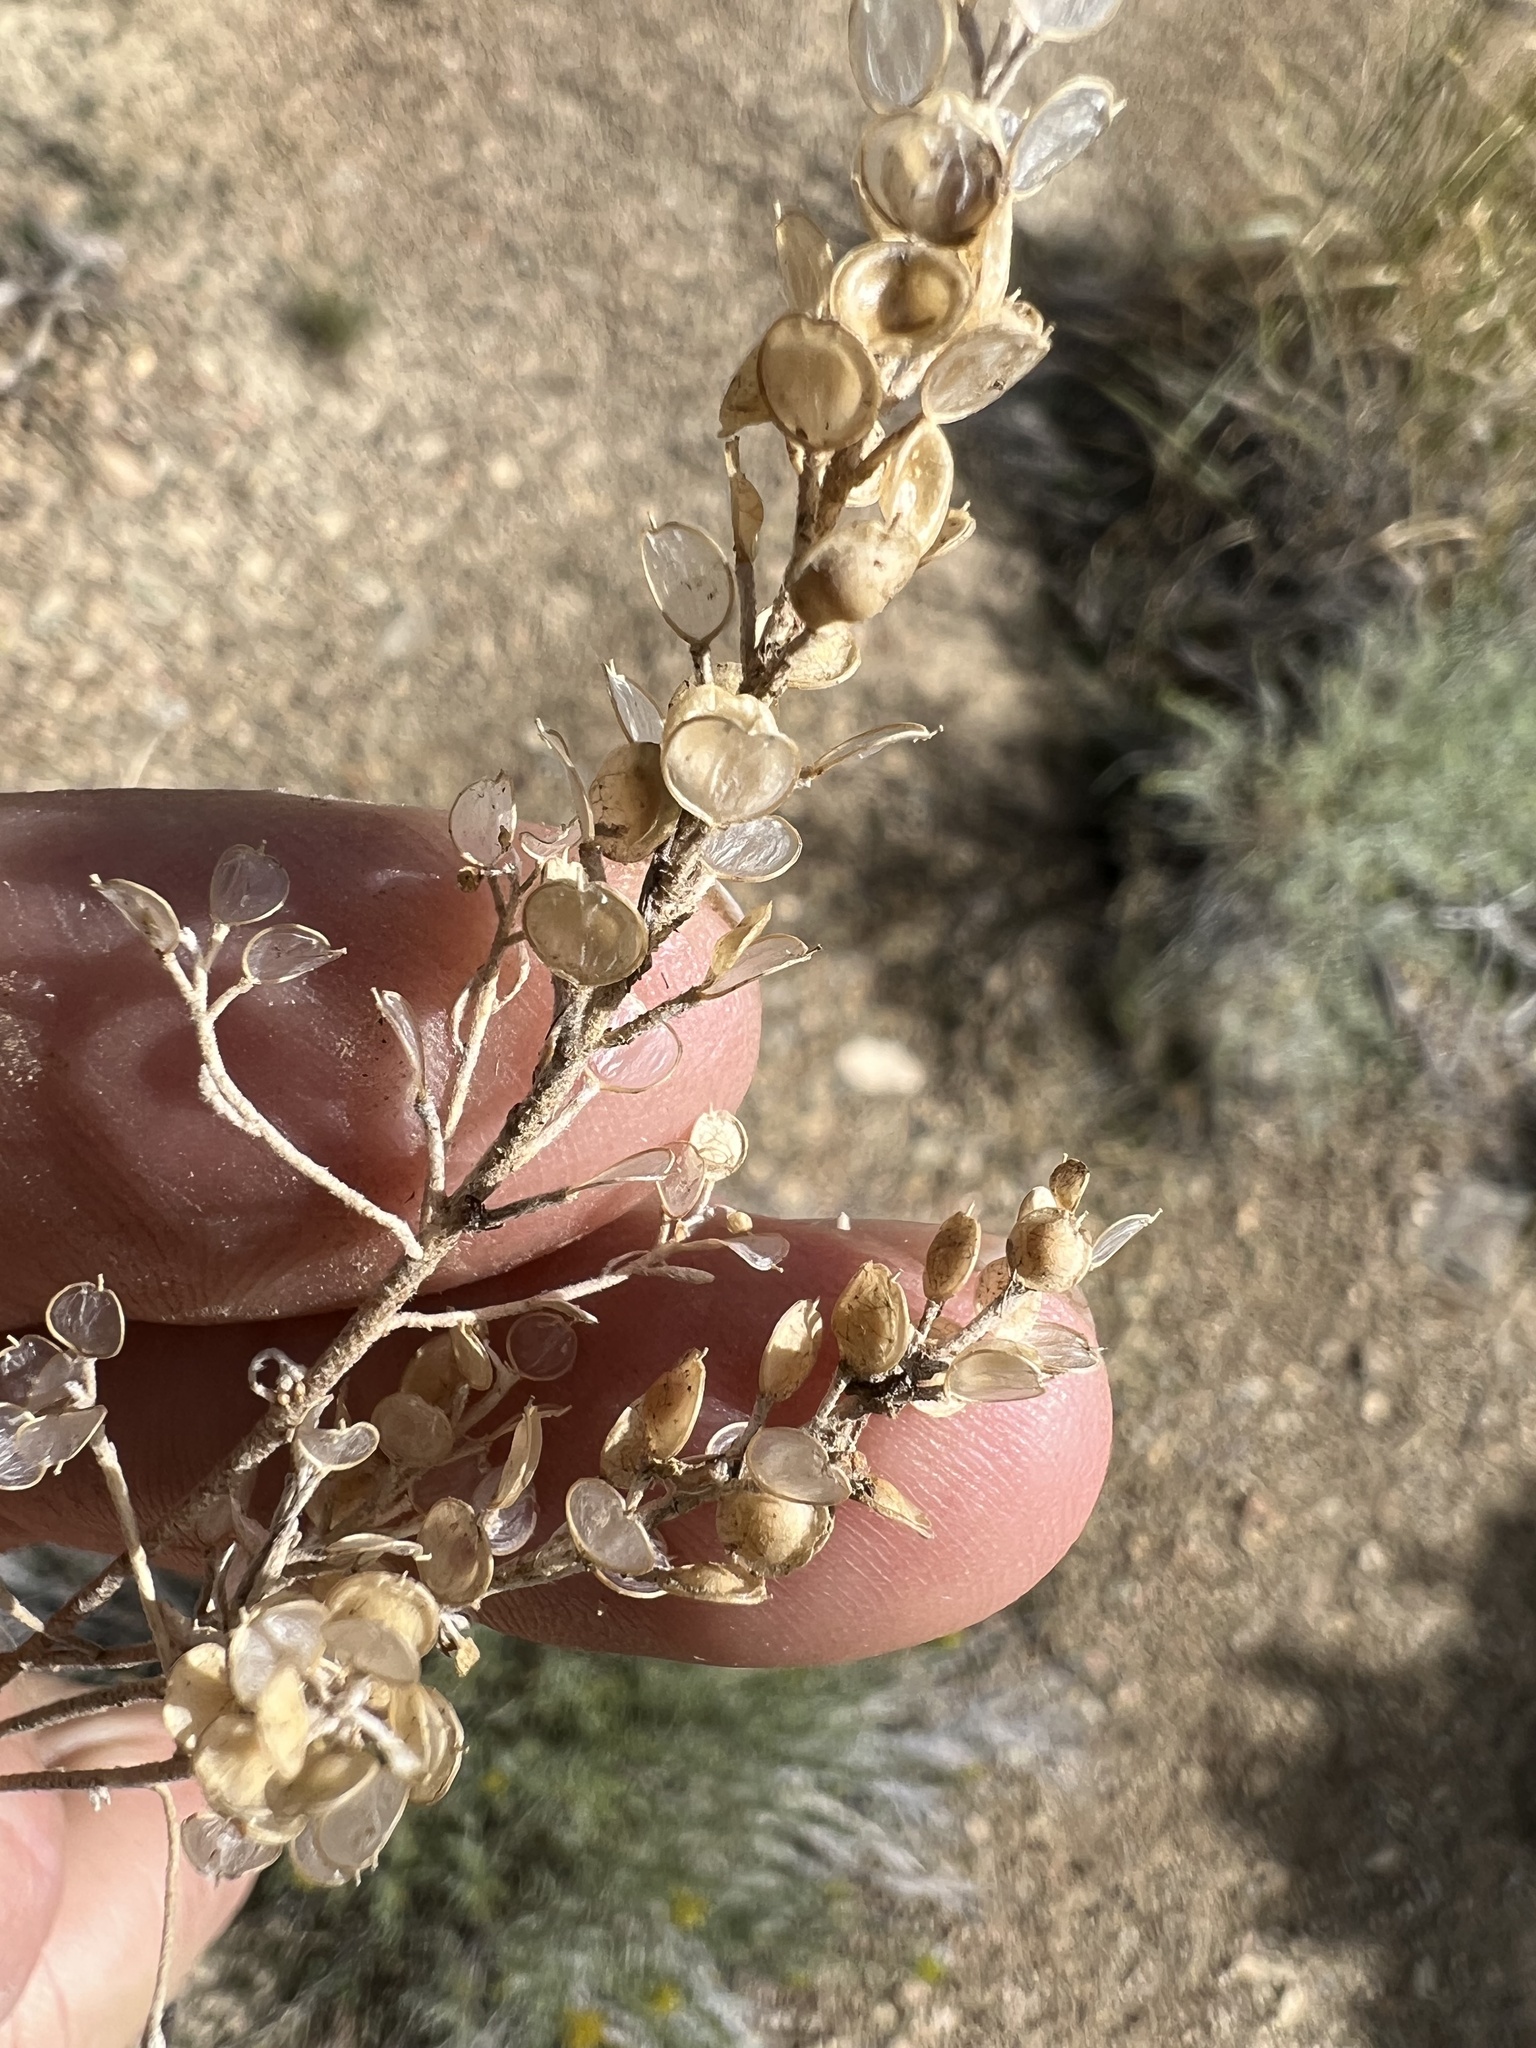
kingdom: Plantae
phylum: Tracheophyta
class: Magnoliopsida
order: Brassicales
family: Brassicaceae
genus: Alyssum
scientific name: Alyssum turkestanicum
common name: Desert alyssum
